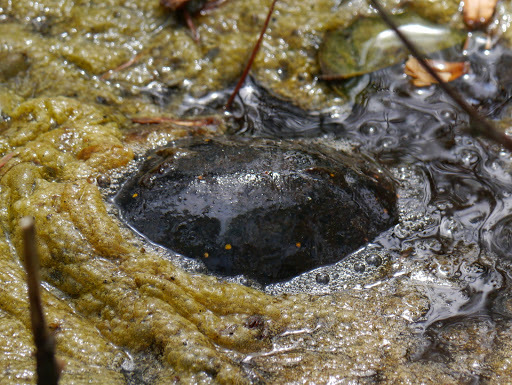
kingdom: Animalia
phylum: Chordata
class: Testudines
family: Emydidae
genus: Clemmys
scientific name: Clemmys guttata
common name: Spotted turtle
